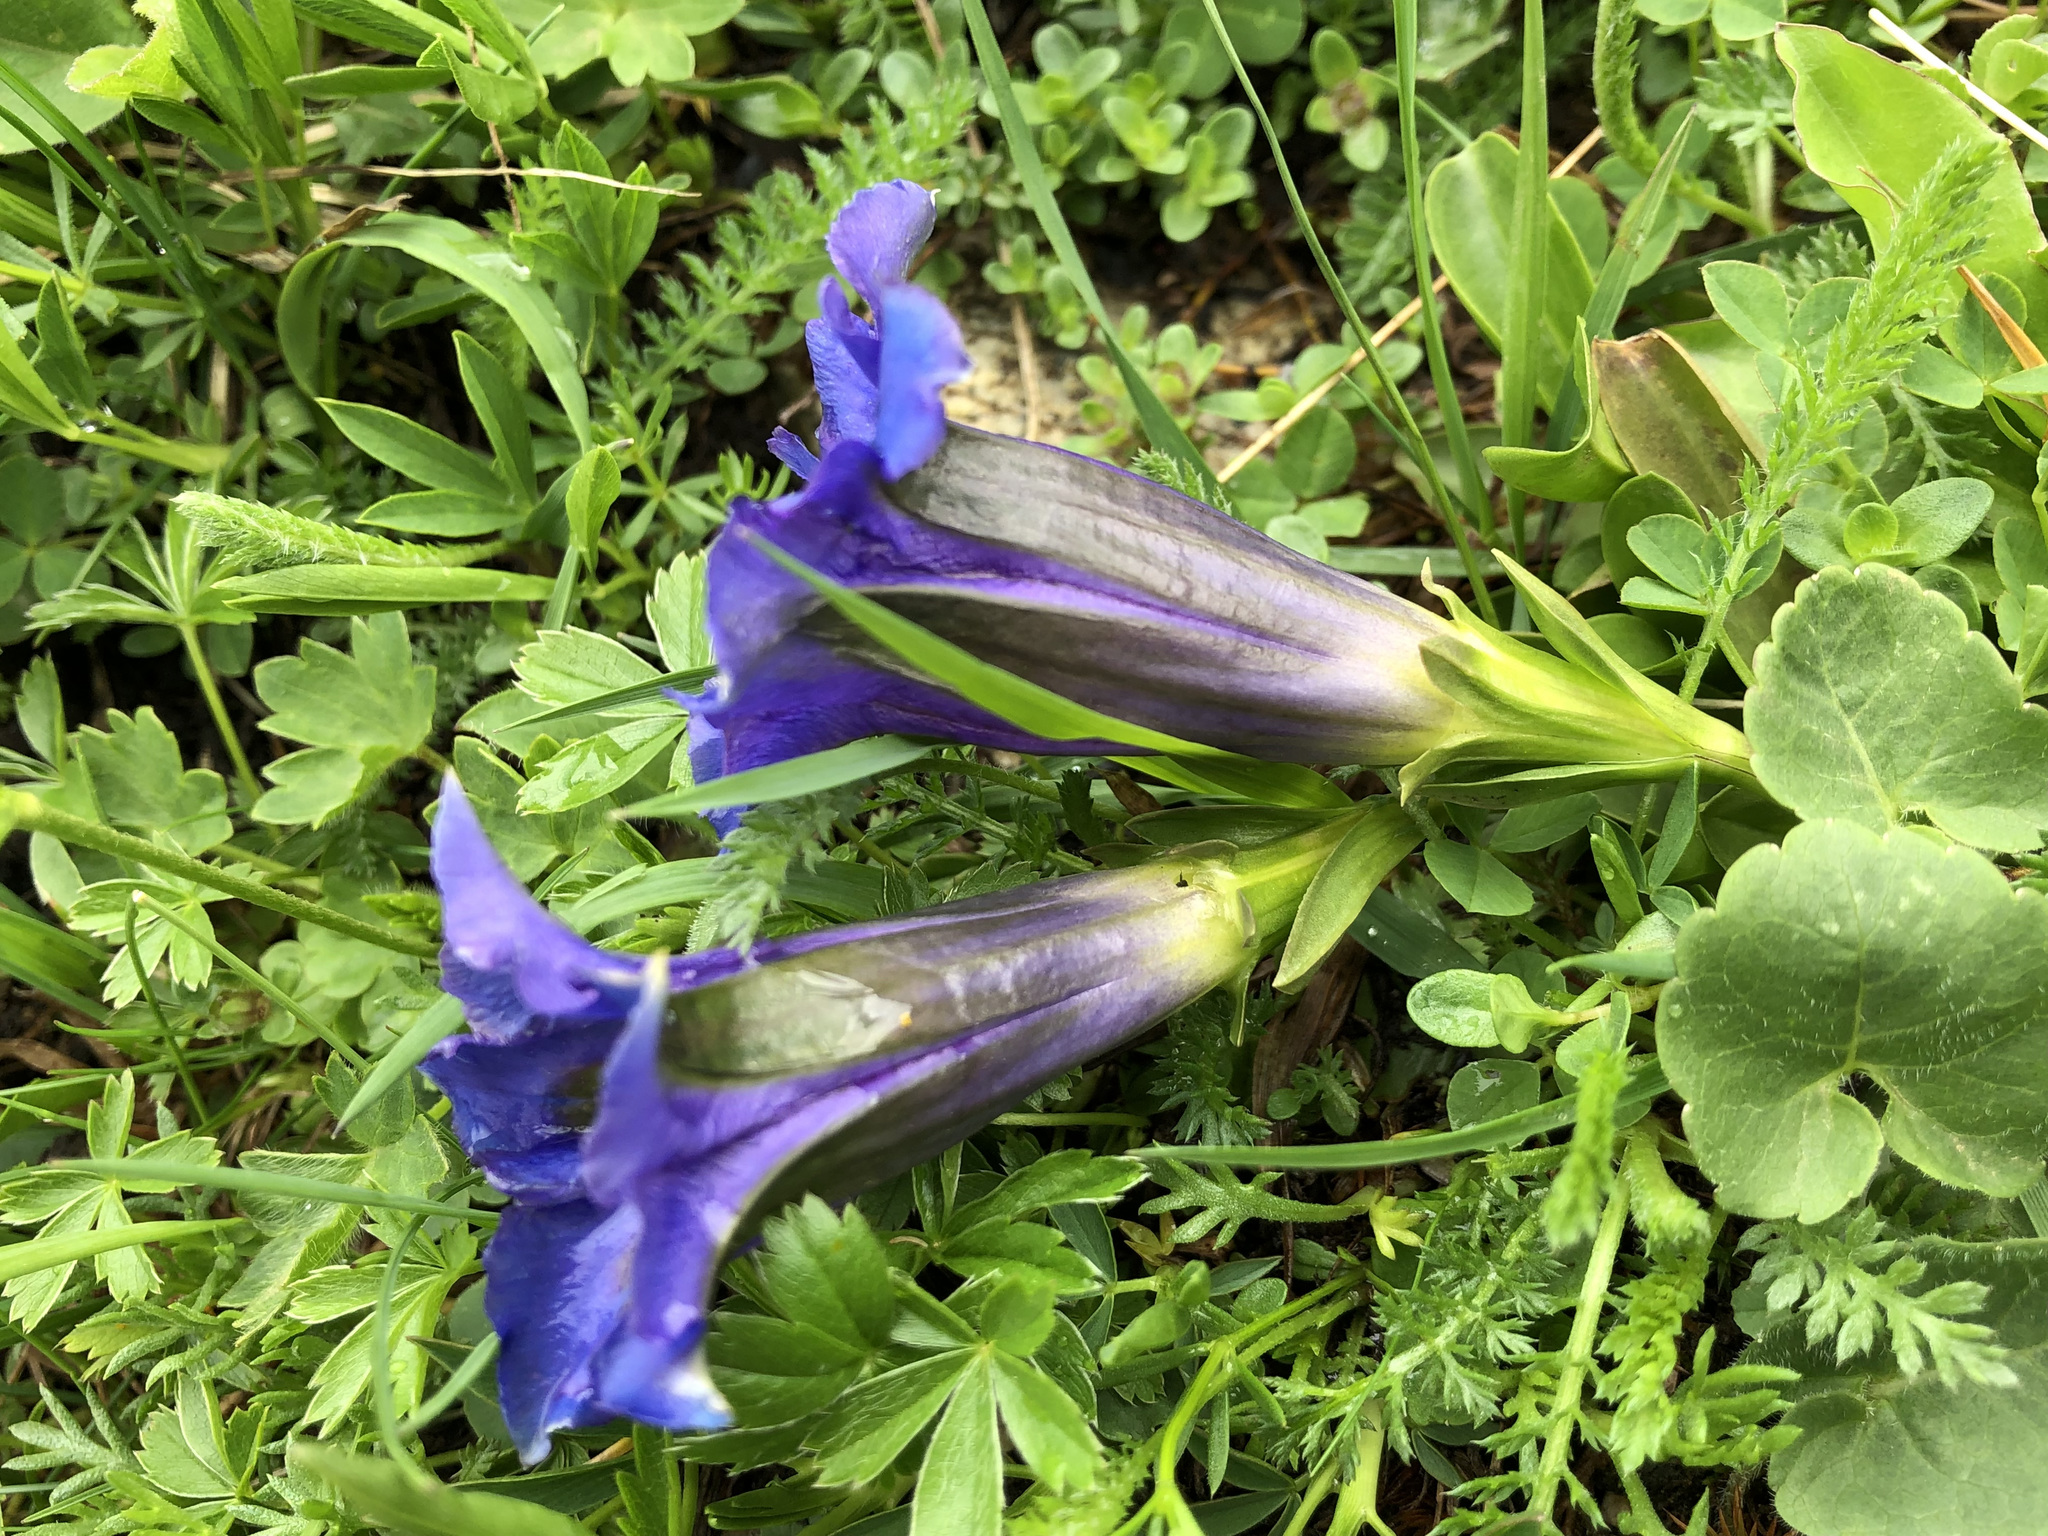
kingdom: Plantae
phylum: Tracheophyta
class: Magnoliopsida
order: Gentianales
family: Gentianaceae
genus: Gentiana
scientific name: Gentiana acaulis
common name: Trumpet gentian
